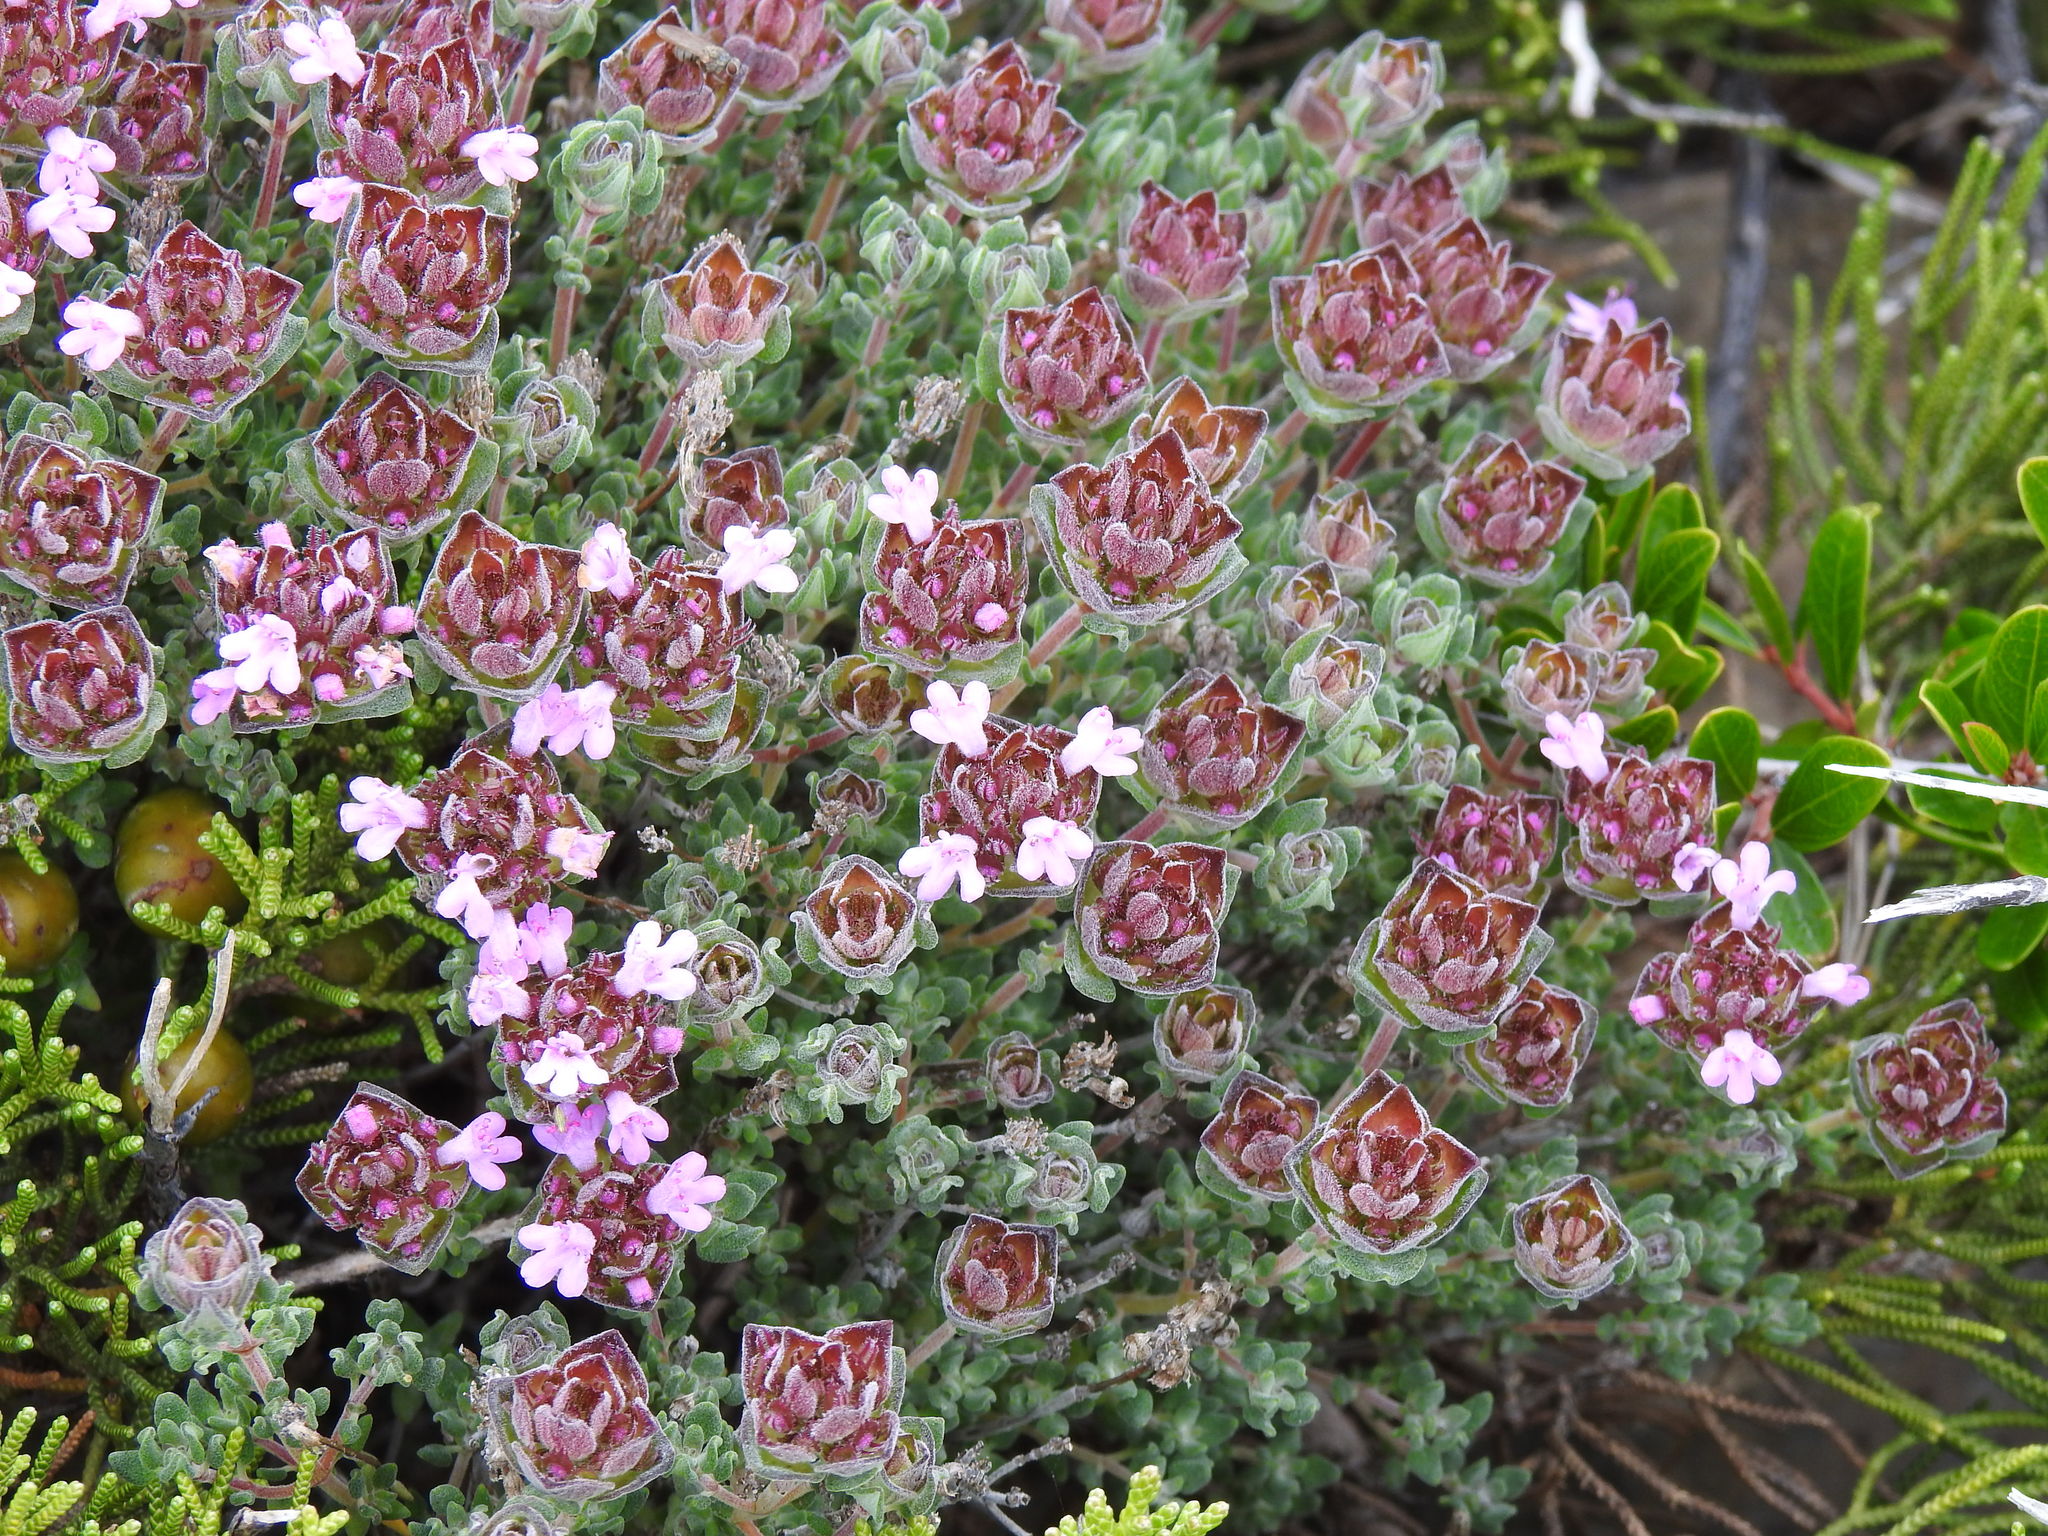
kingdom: Plantae
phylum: Tracheophyta
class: Magnoliopsida
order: Lamiales
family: Lamiaceae
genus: Thymus
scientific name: Thymus camphoratus
